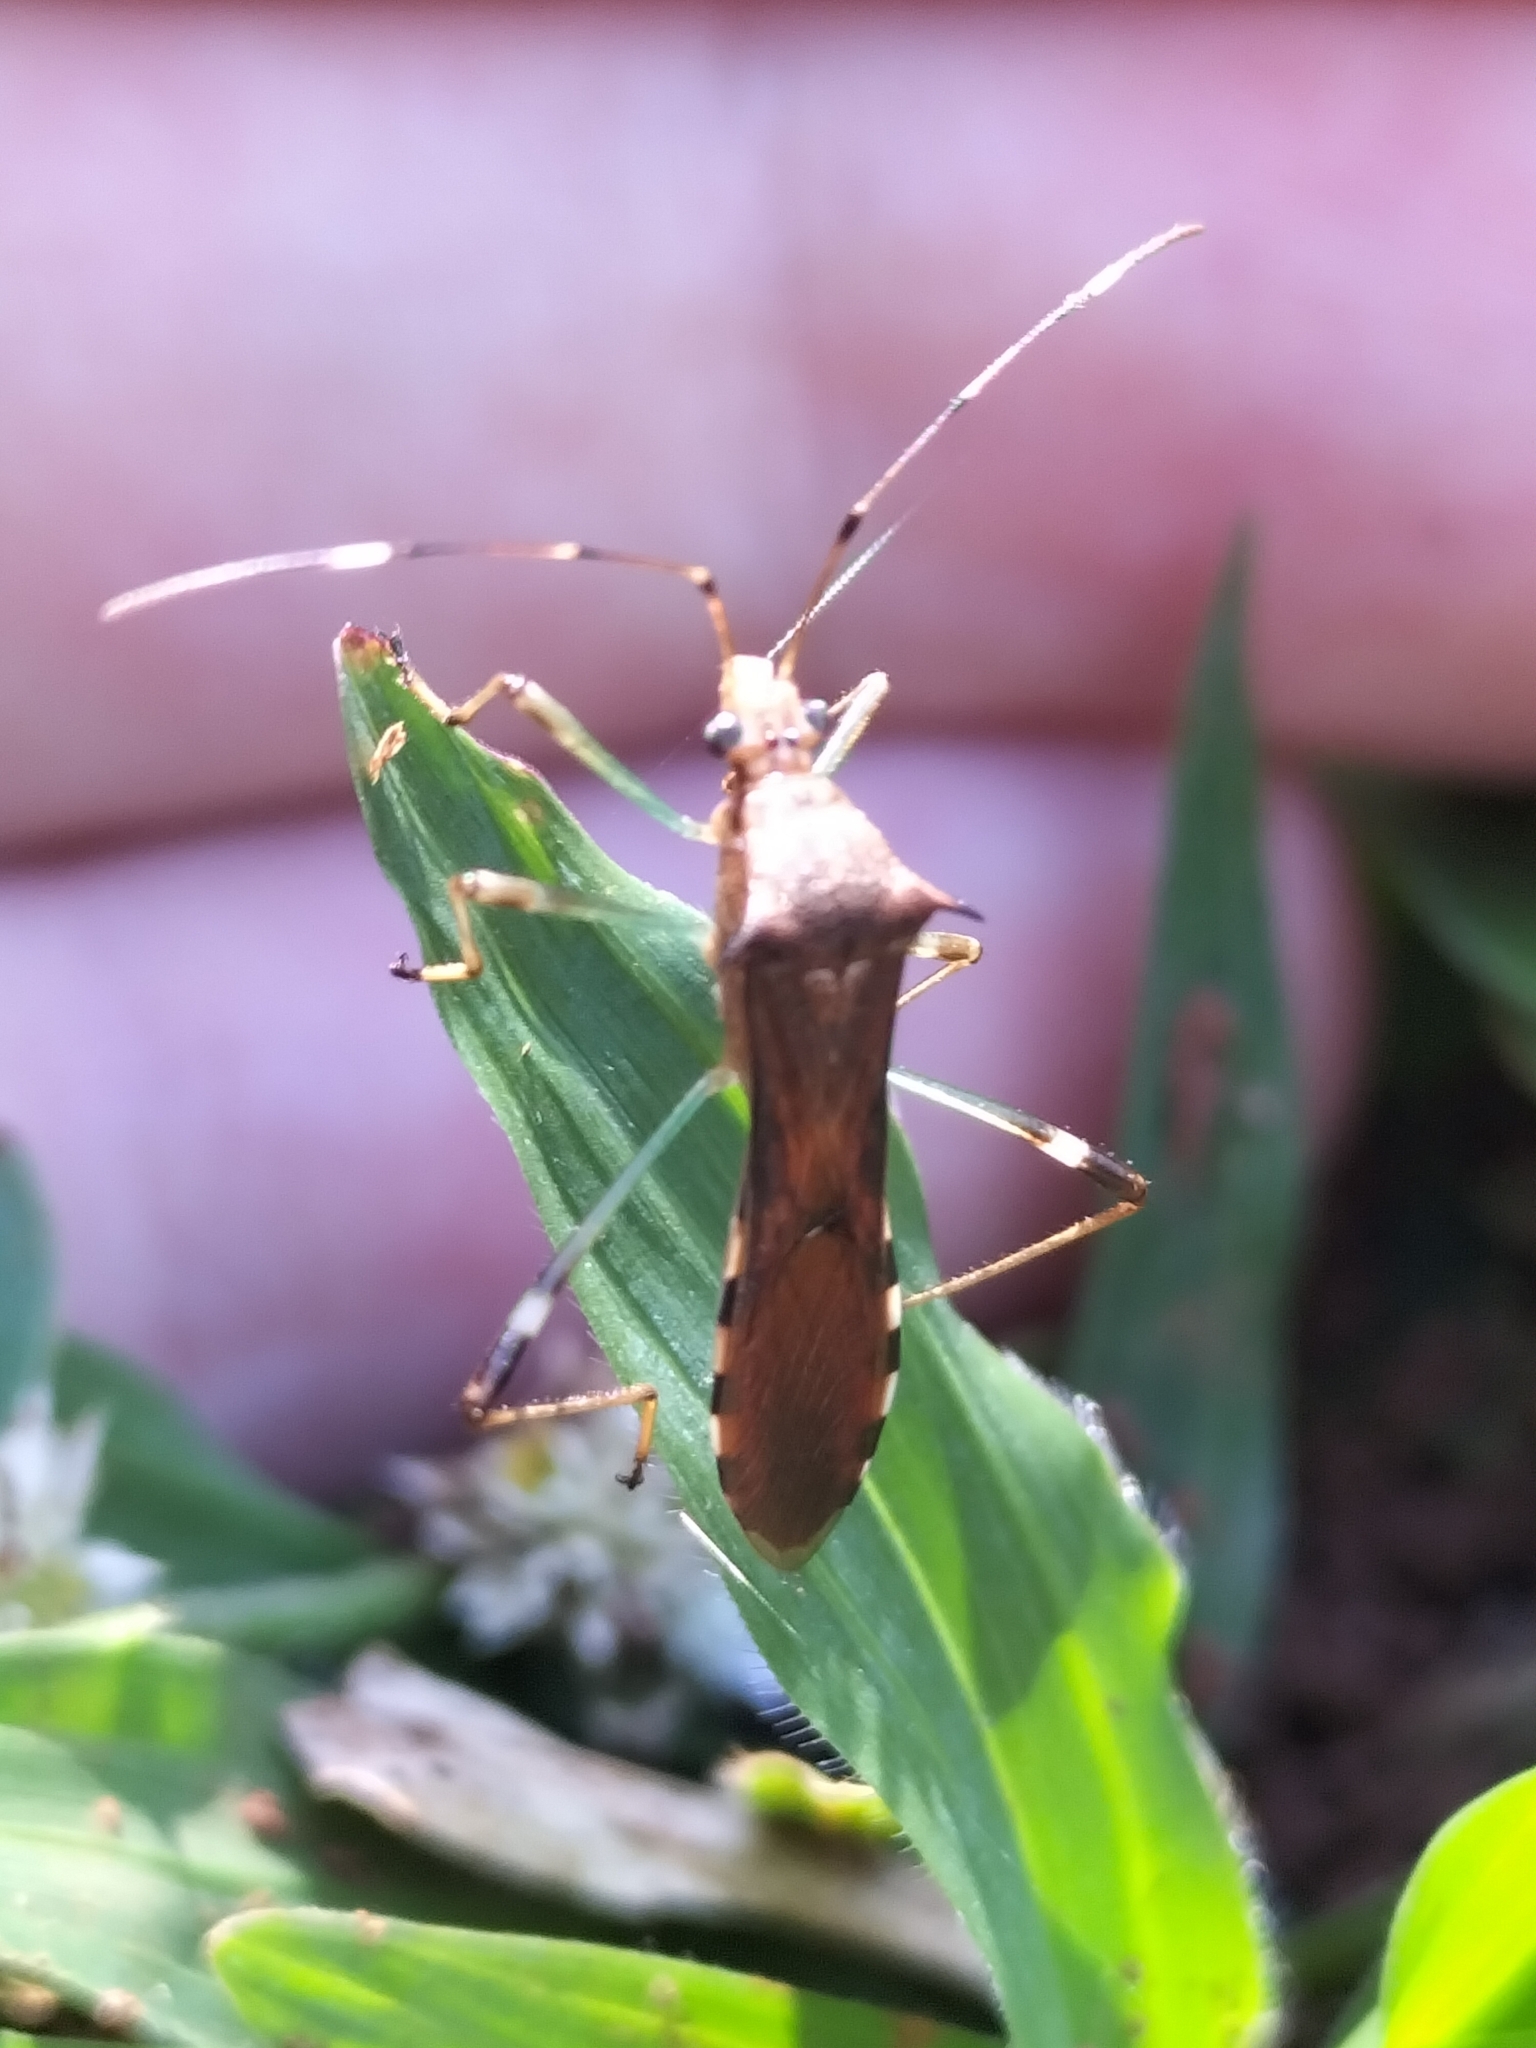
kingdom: Animalia
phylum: Arthropoda
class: Insecta
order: Hemiptera
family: Alydidae
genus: Noliphus
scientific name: Noliphus annulipes
